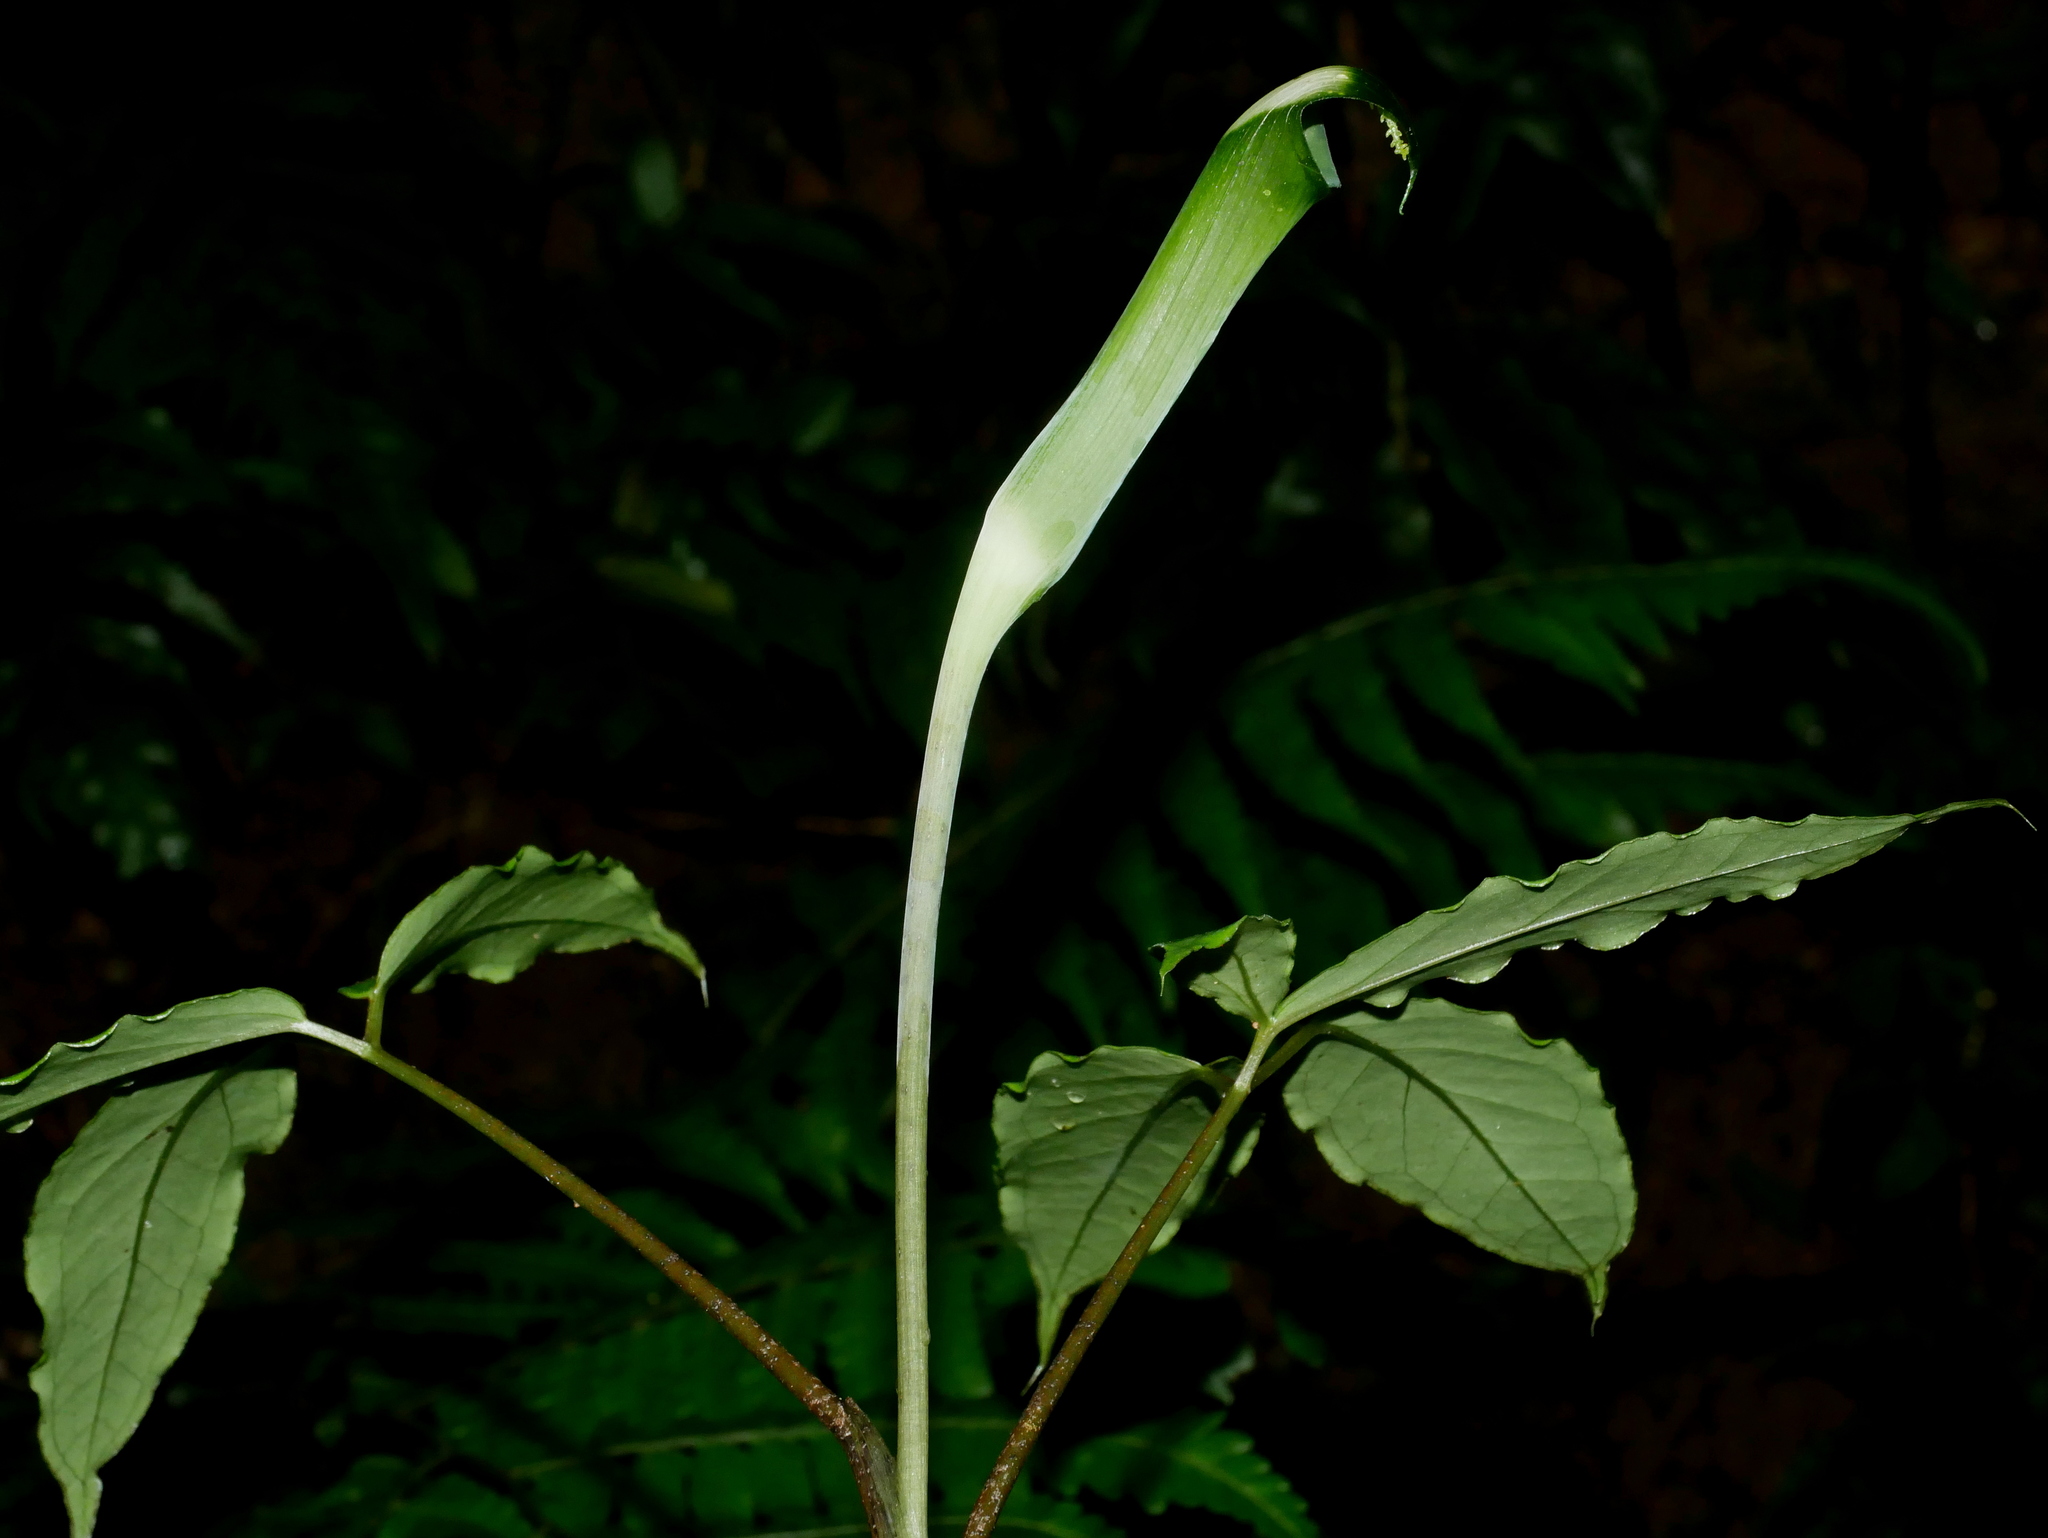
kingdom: Plantae
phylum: Tracheophyta
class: Liliopsida
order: Alismatales
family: Araceae
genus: Arisaema
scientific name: Arisaema grapsospadix
